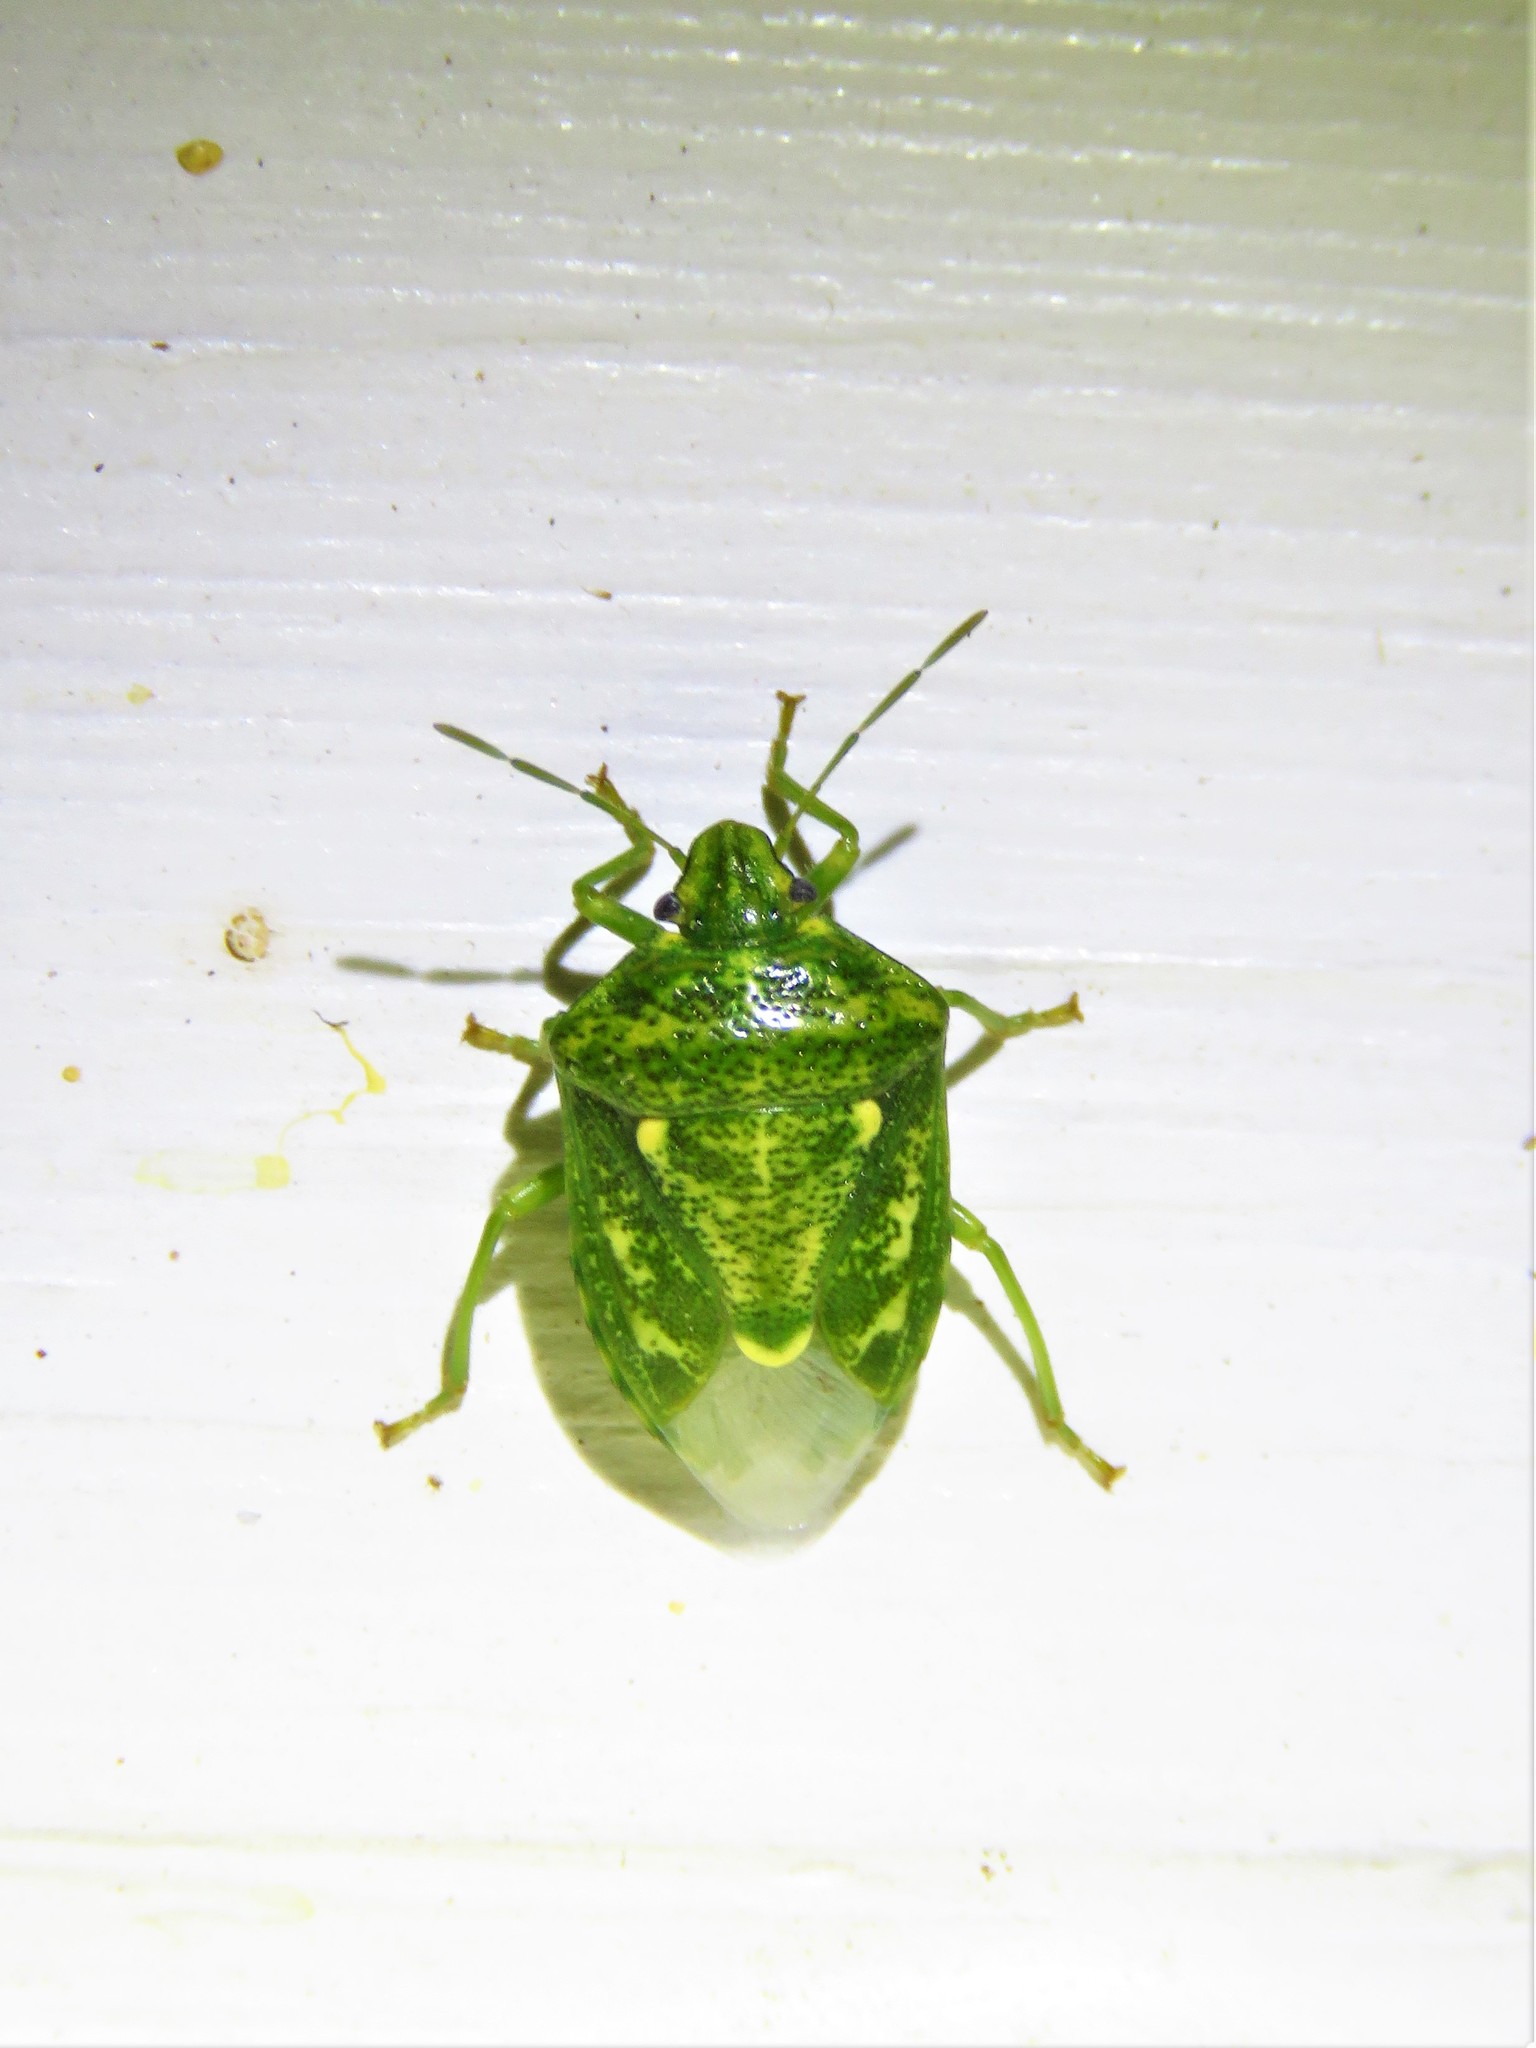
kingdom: Animalia
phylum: Arthropoda
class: Insecta
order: Hemiptera
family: Pentatomidae
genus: Banasa
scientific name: Banasa euchlora
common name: Cedar berry bug
